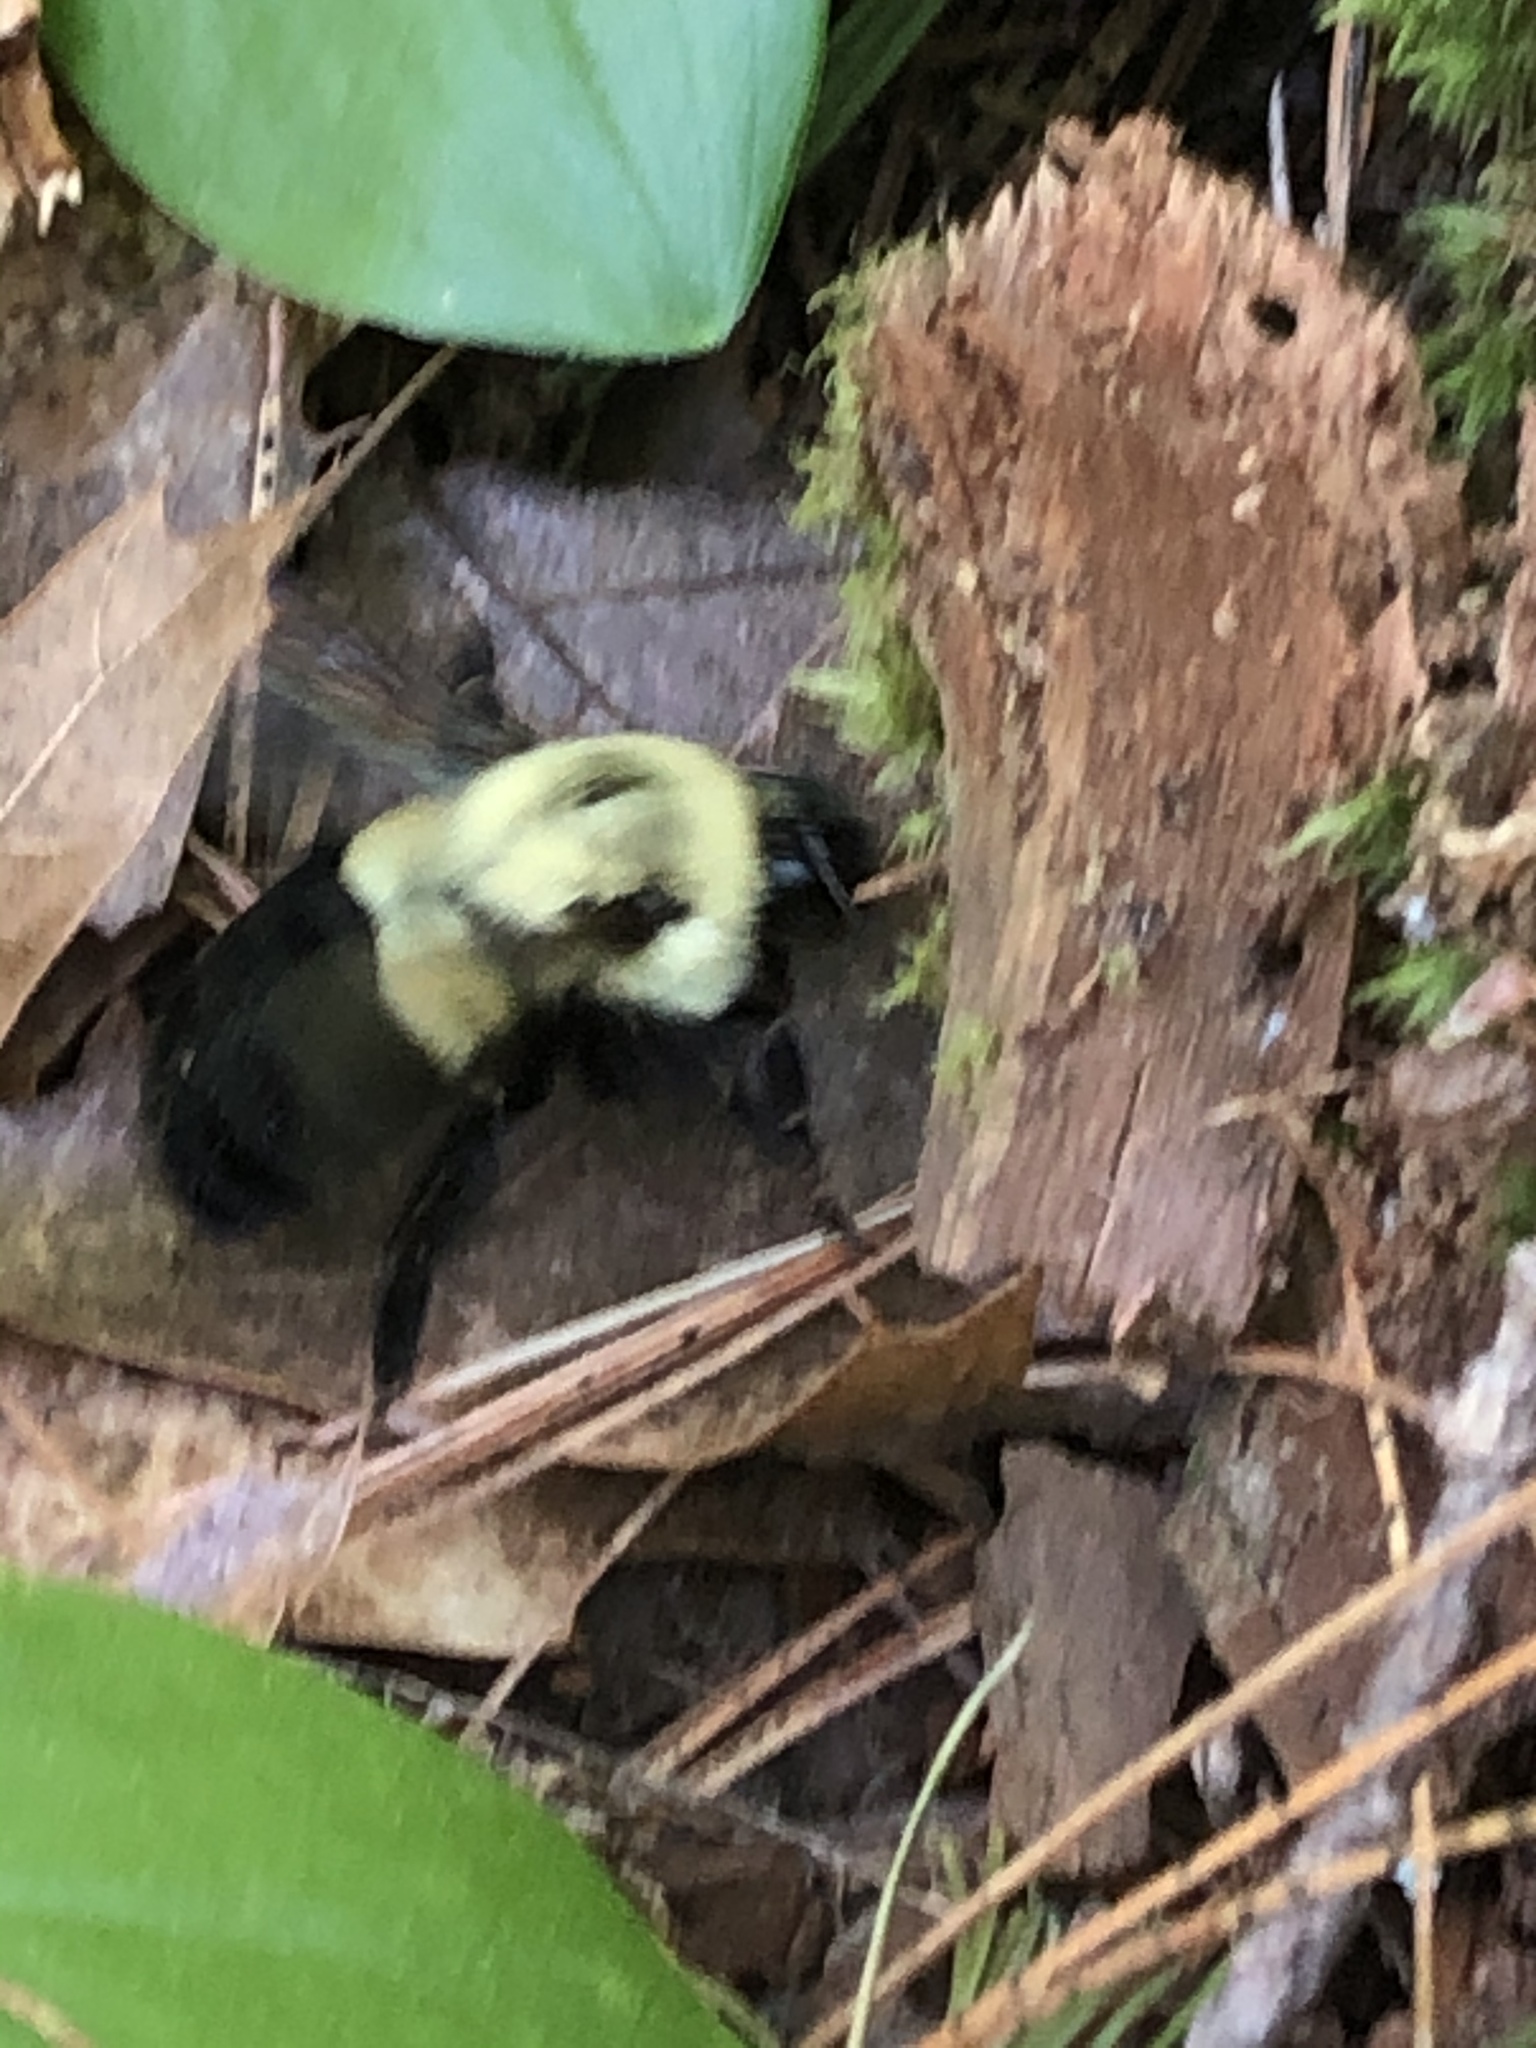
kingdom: Animalia
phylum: Arthropoda
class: Insecta
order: Hymenoptera
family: Apidae
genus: Bombus
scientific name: Bombus impatiens
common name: Common eastern bumble bee
